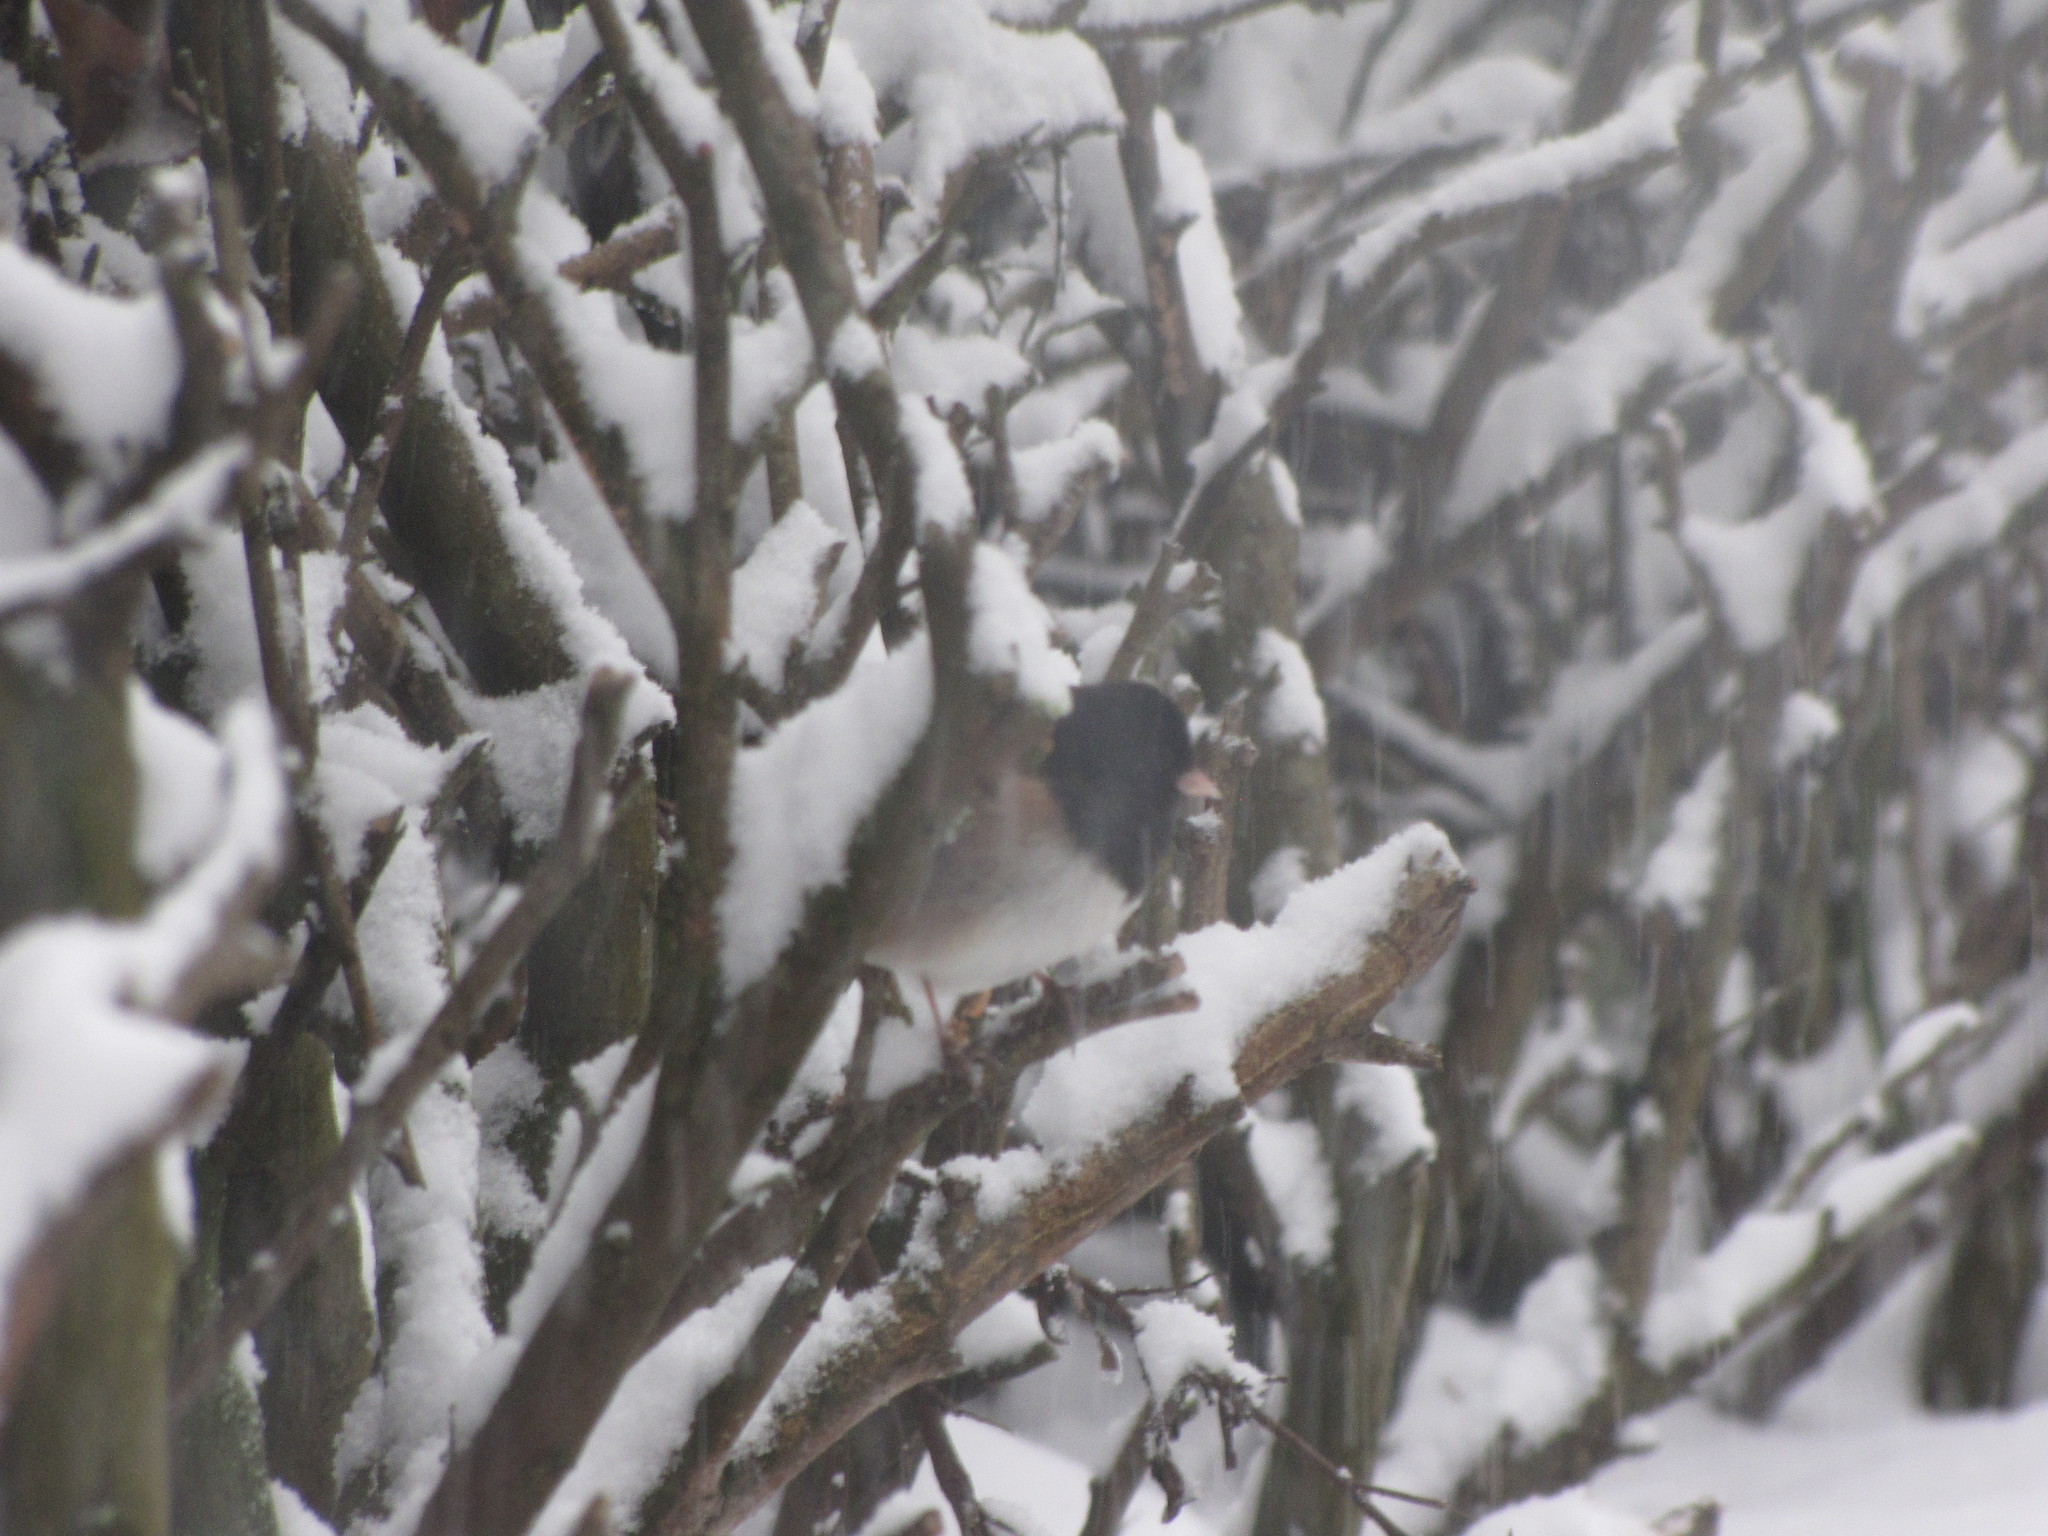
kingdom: Animalia
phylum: Chordata
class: Aves
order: Passeriformes
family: Passerellidae
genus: Junco
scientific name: Junco hyemalis
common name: Dark-eyed junco
